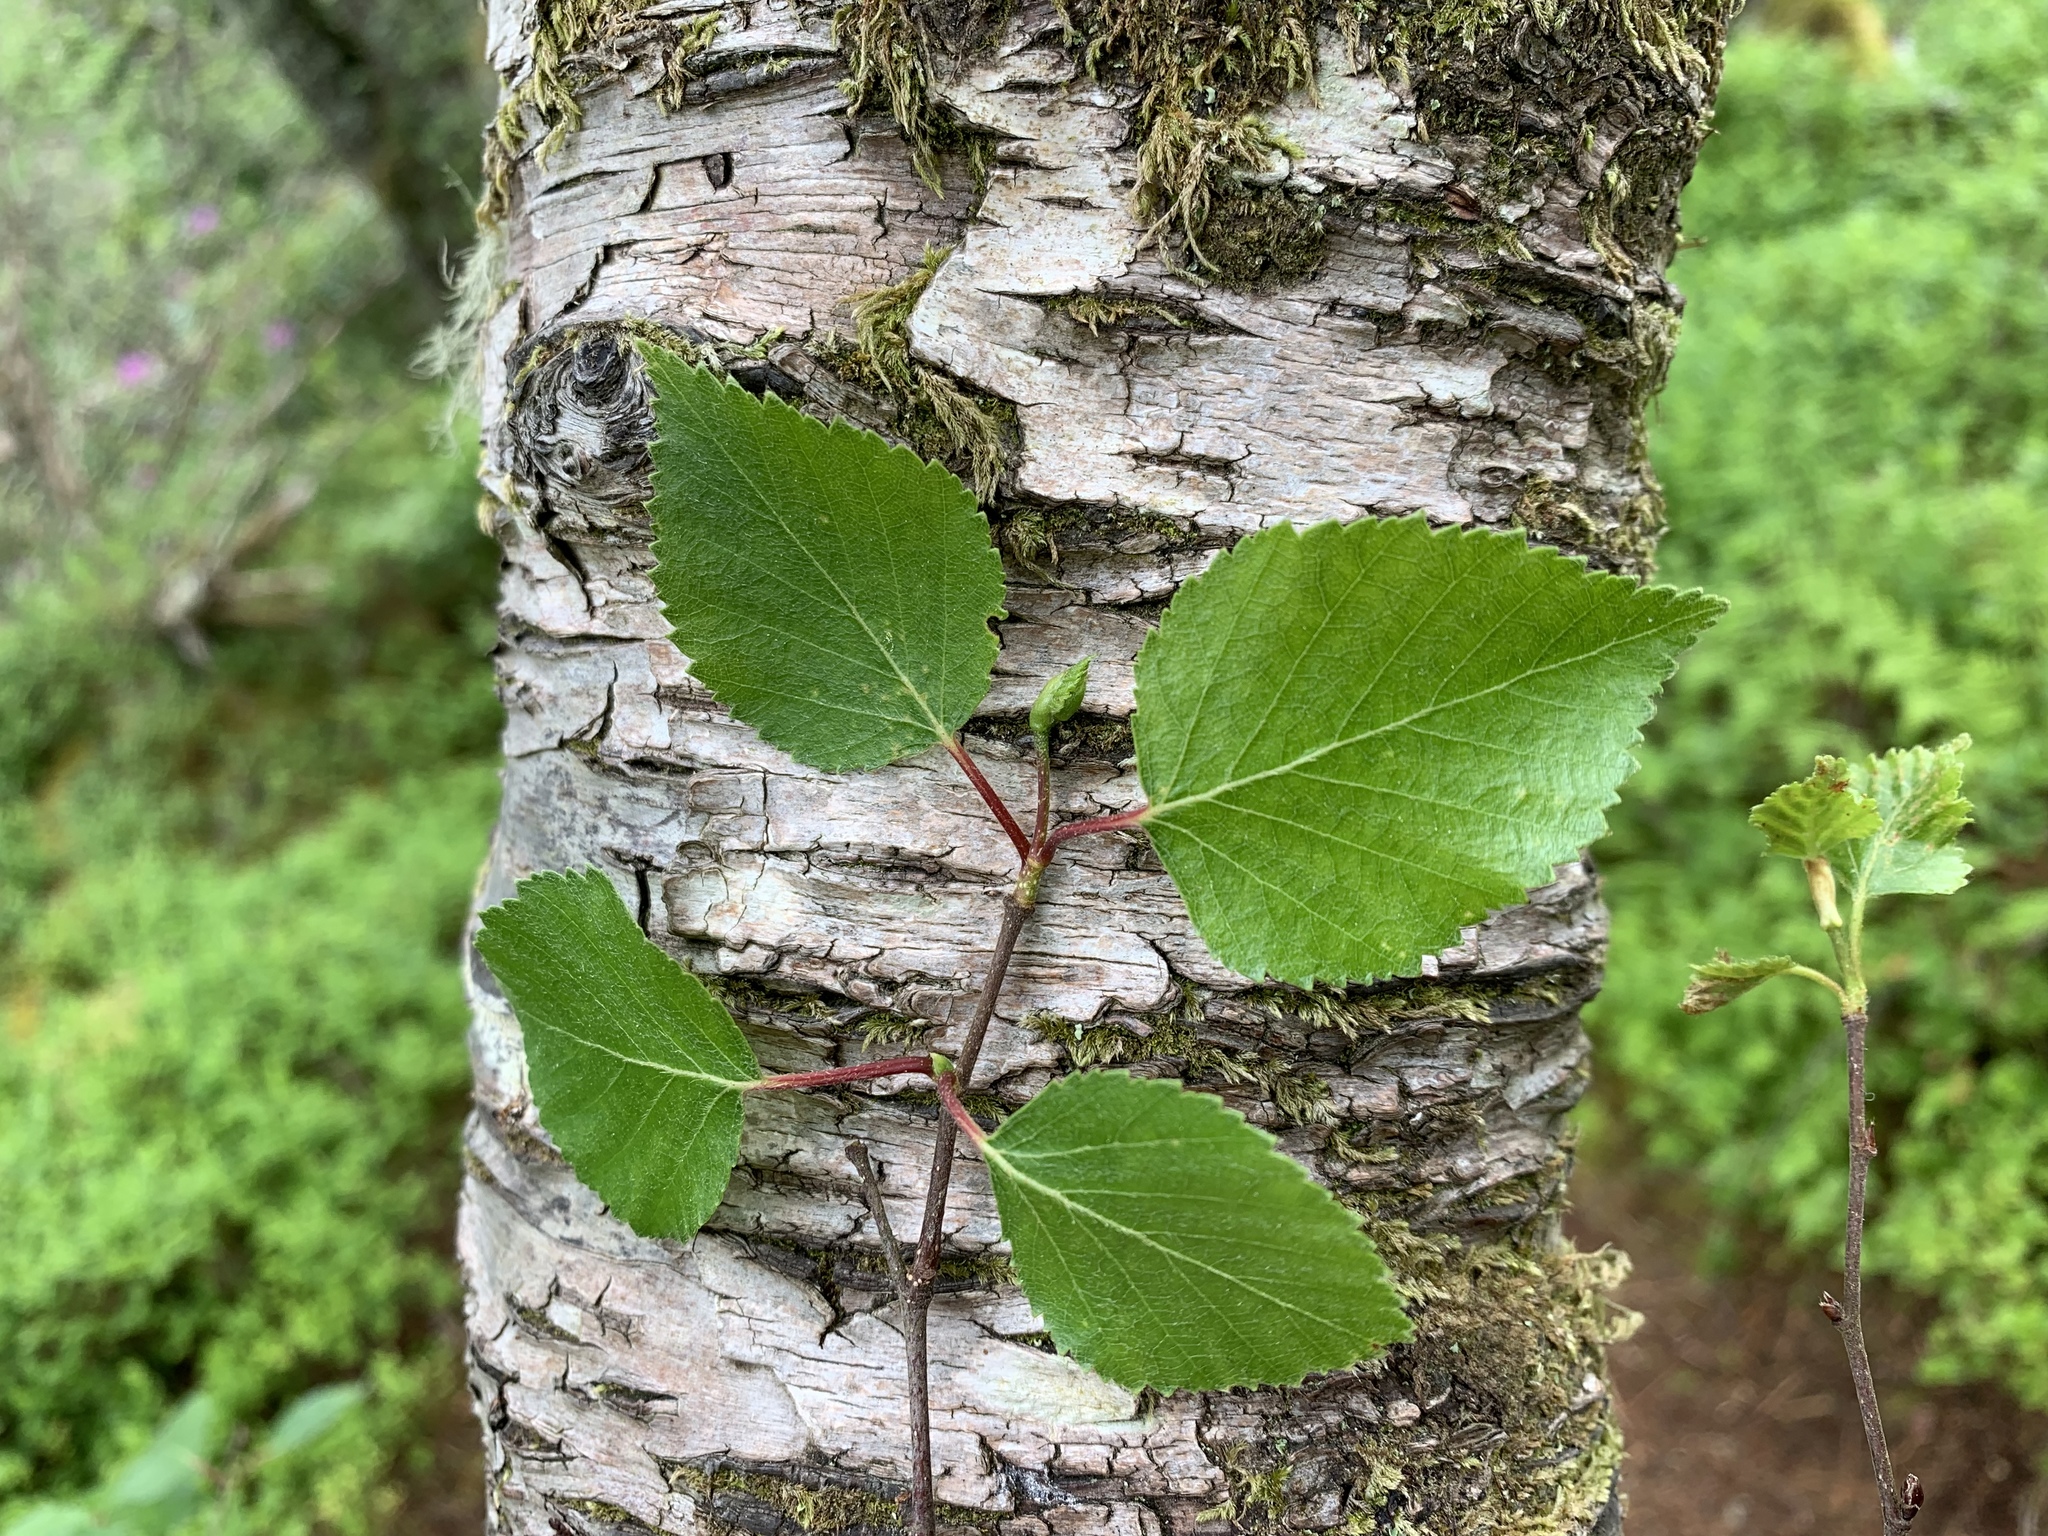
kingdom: Plantae
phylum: Tracheophyta
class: Magnoliopsida
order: Fagales
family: Betulaceae
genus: Betula
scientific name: Betula pendula
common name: Silver birch
